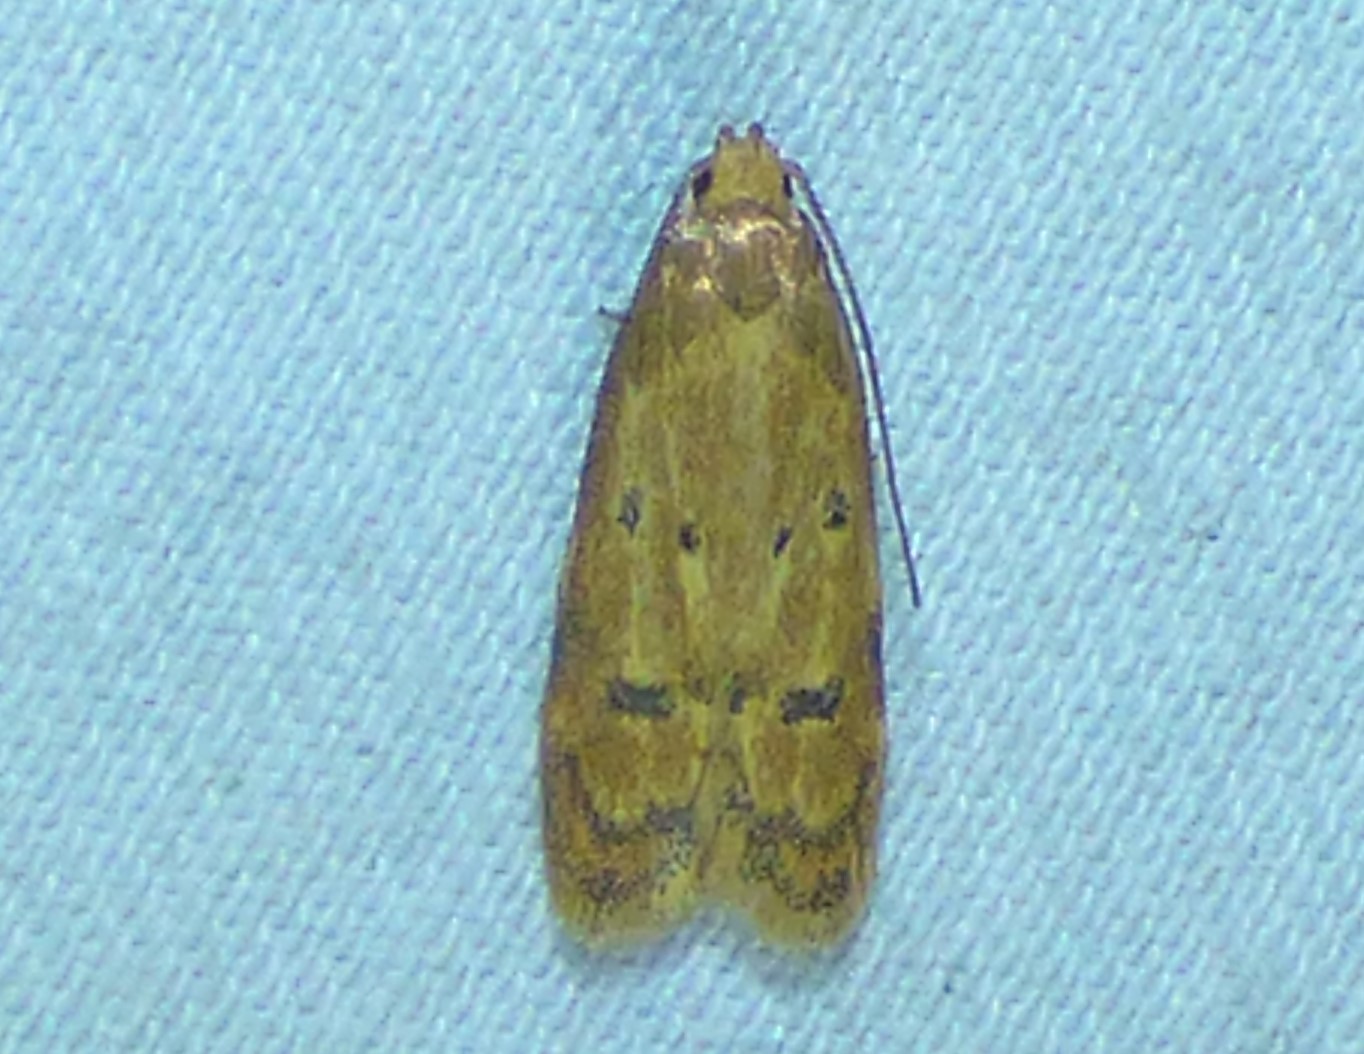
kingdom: Animalia
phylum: Arthropoda
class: Insecta
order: Lepidoptera
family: Autostichidae
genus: Gerdana
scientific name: Gerdana caritella
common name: Gerdana moth
